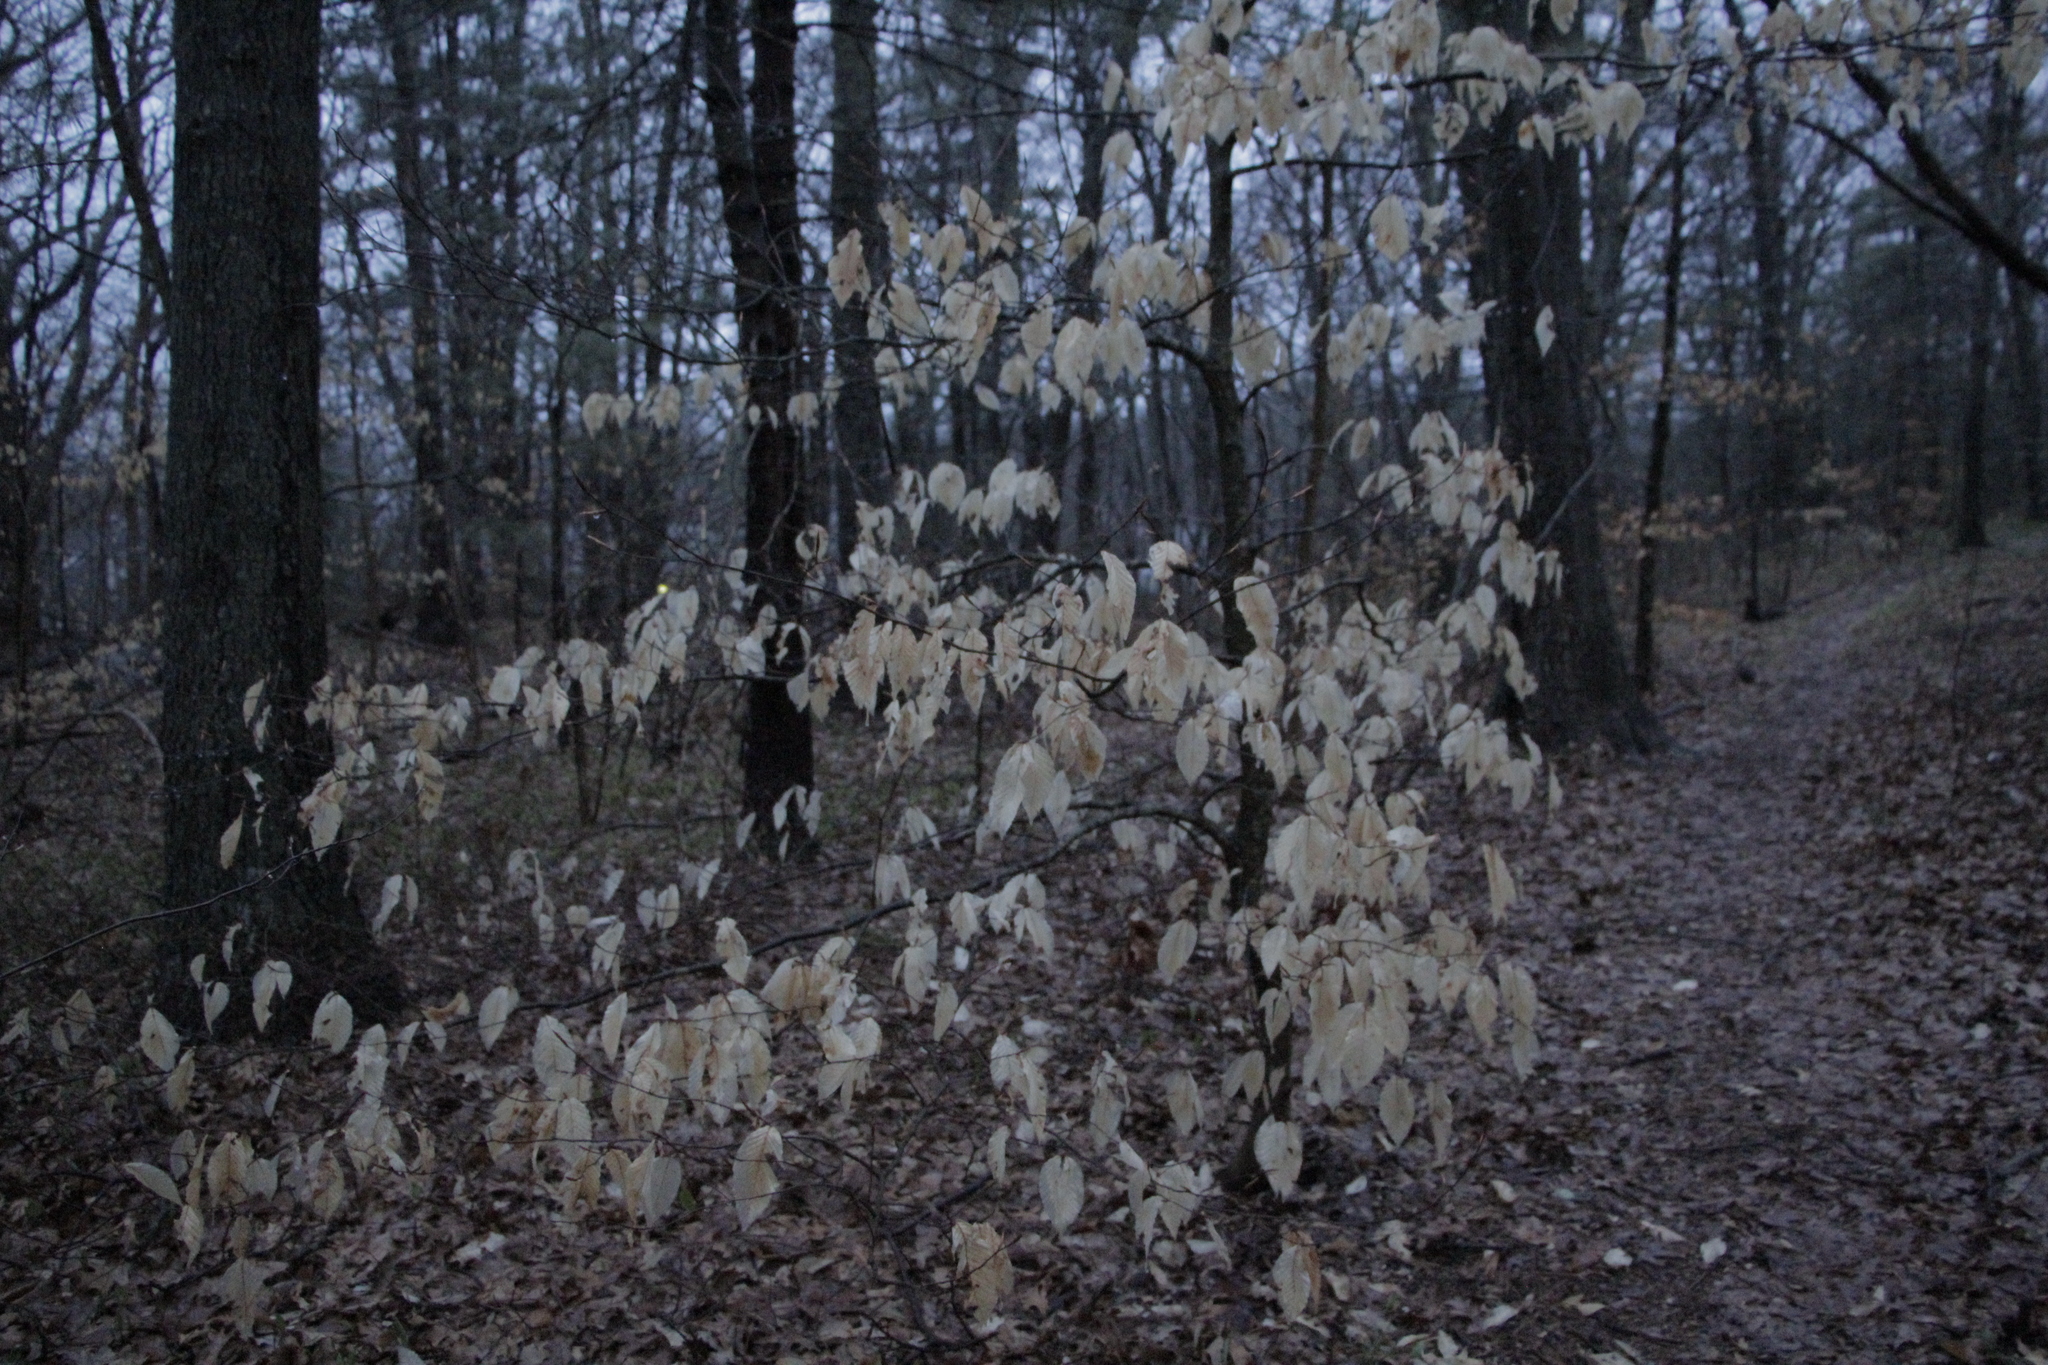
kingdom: Plantae
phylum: Tracheophyta
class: Magnoliopsida
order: Fagales
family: Fagaceae
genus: Fagus
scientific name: Fagus grandifolia
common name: American beech
